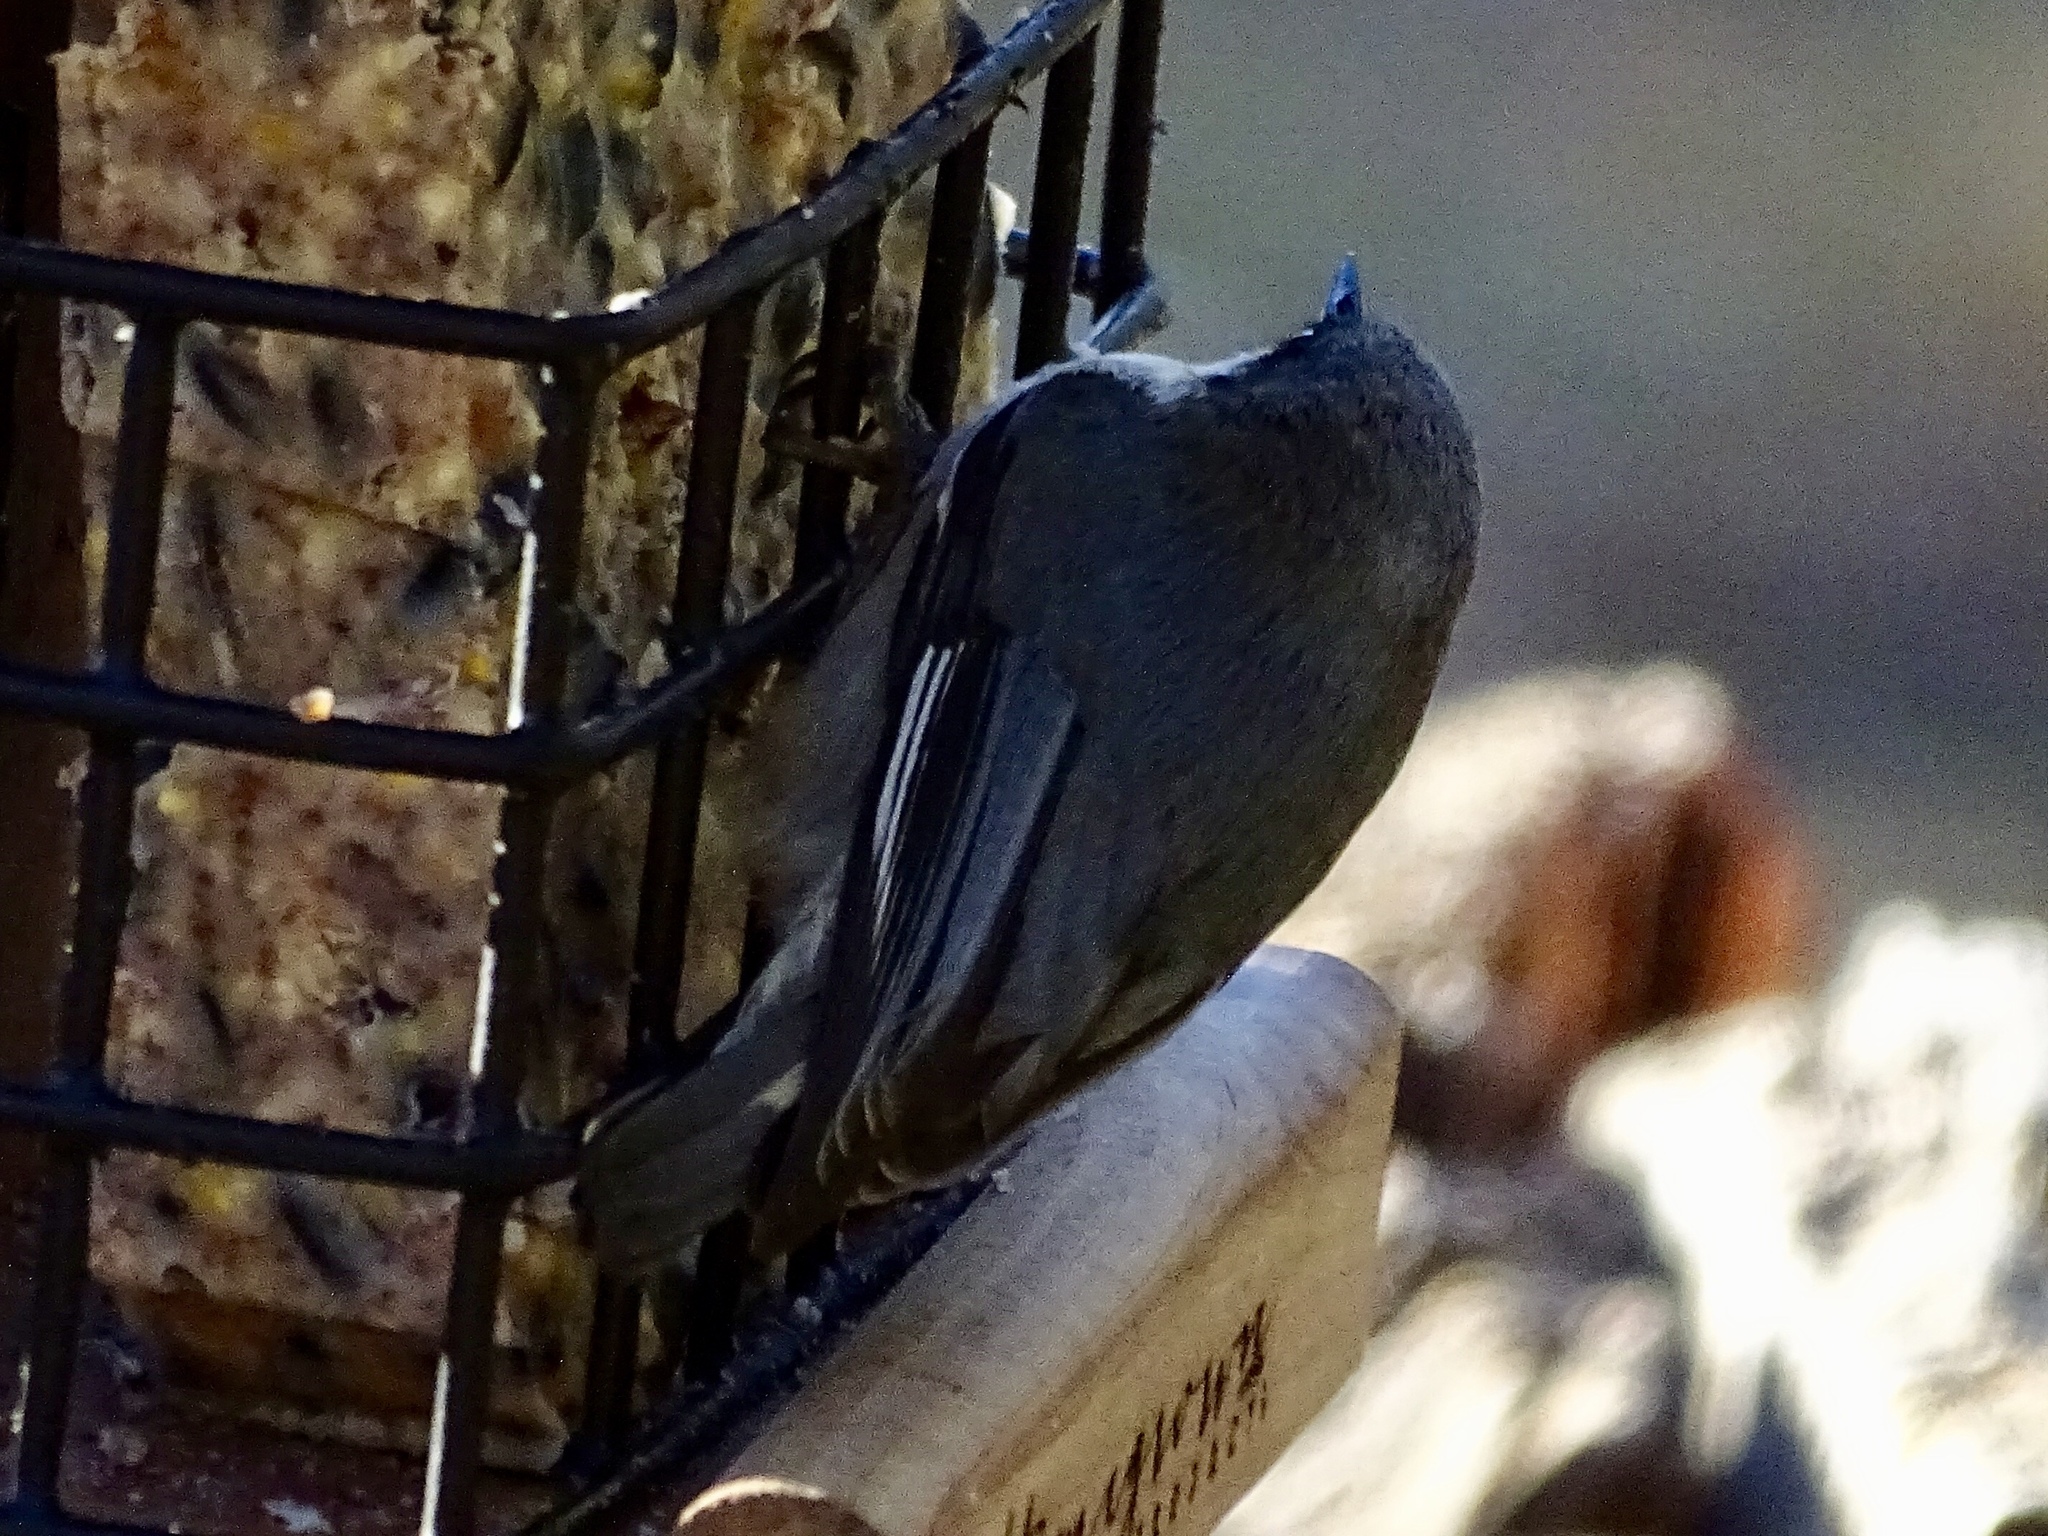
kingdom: Animalia
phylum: Chordata
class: Aves
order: Passeriformes
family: Sittidae
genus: Sitta
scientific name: Sitta pygmaea
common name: Pygmy nuthatch
